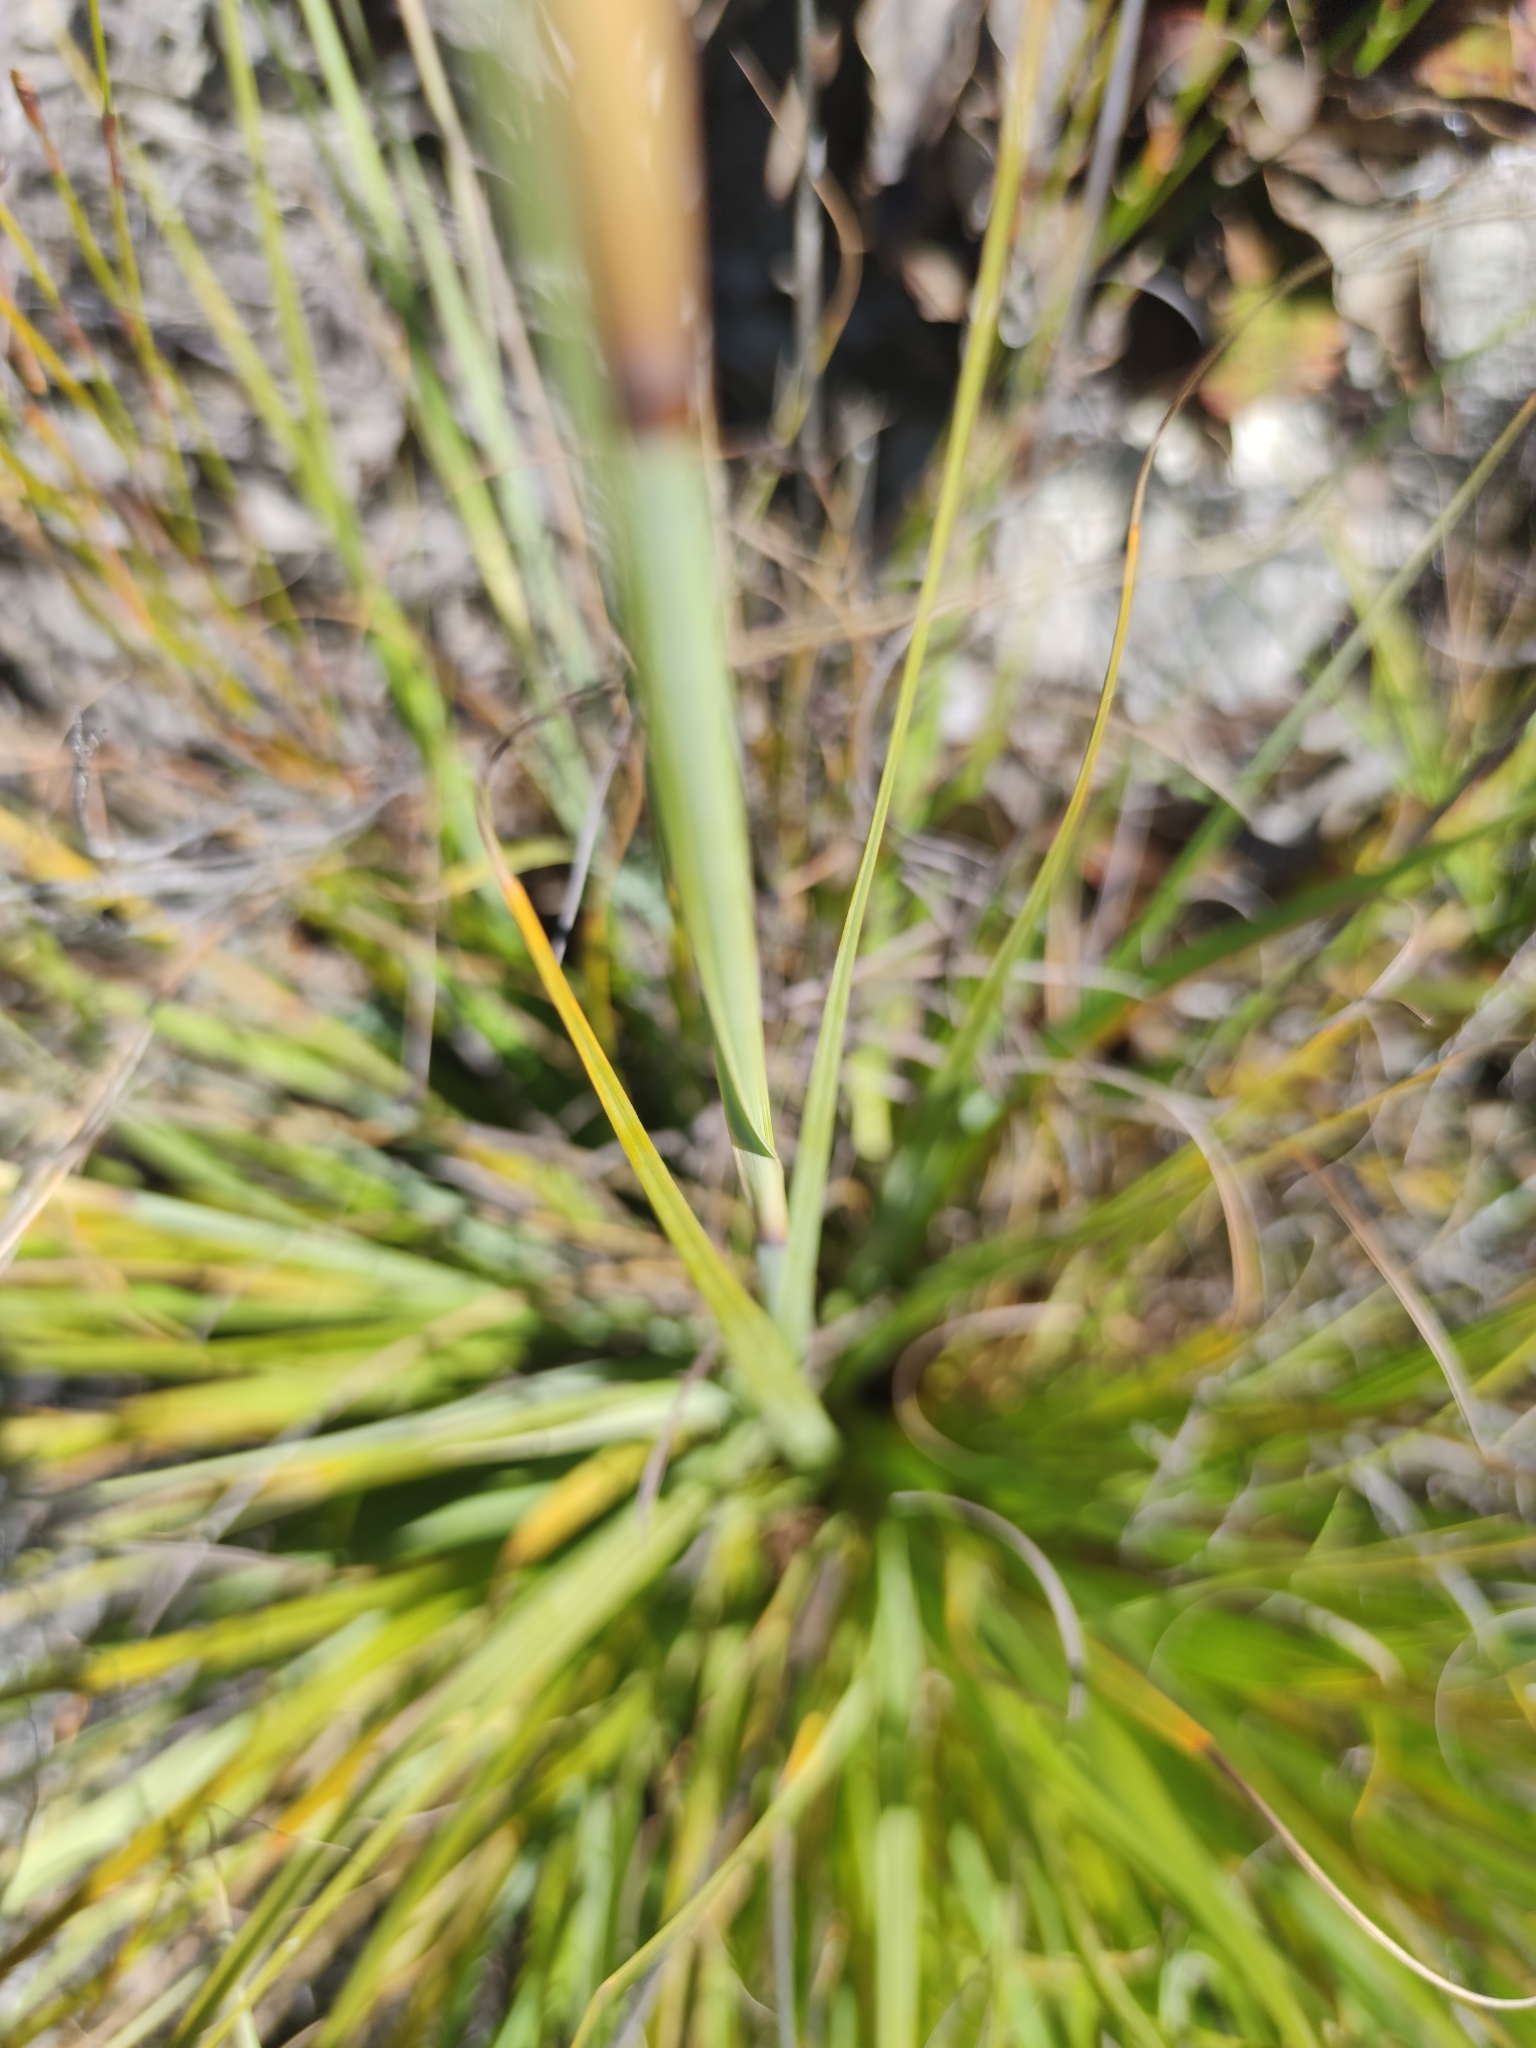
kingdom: Plantae
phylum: Tracheophyta
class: Liliopsida
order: Poales
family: Cyperaceae
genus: Tetraria
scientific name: Tetraria triangularis
